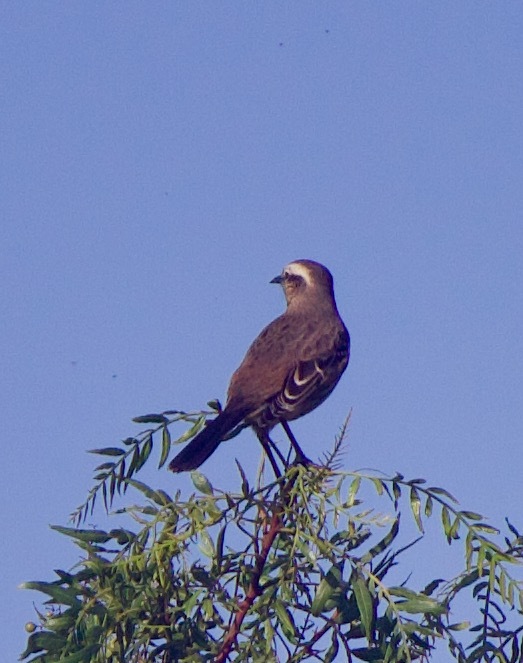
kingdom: Animalia
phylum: Chordata
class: Aves
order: Passeriformes
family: Mimidae
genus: Mimus
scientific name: Mimus thenca
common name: Chilean mockingbird
